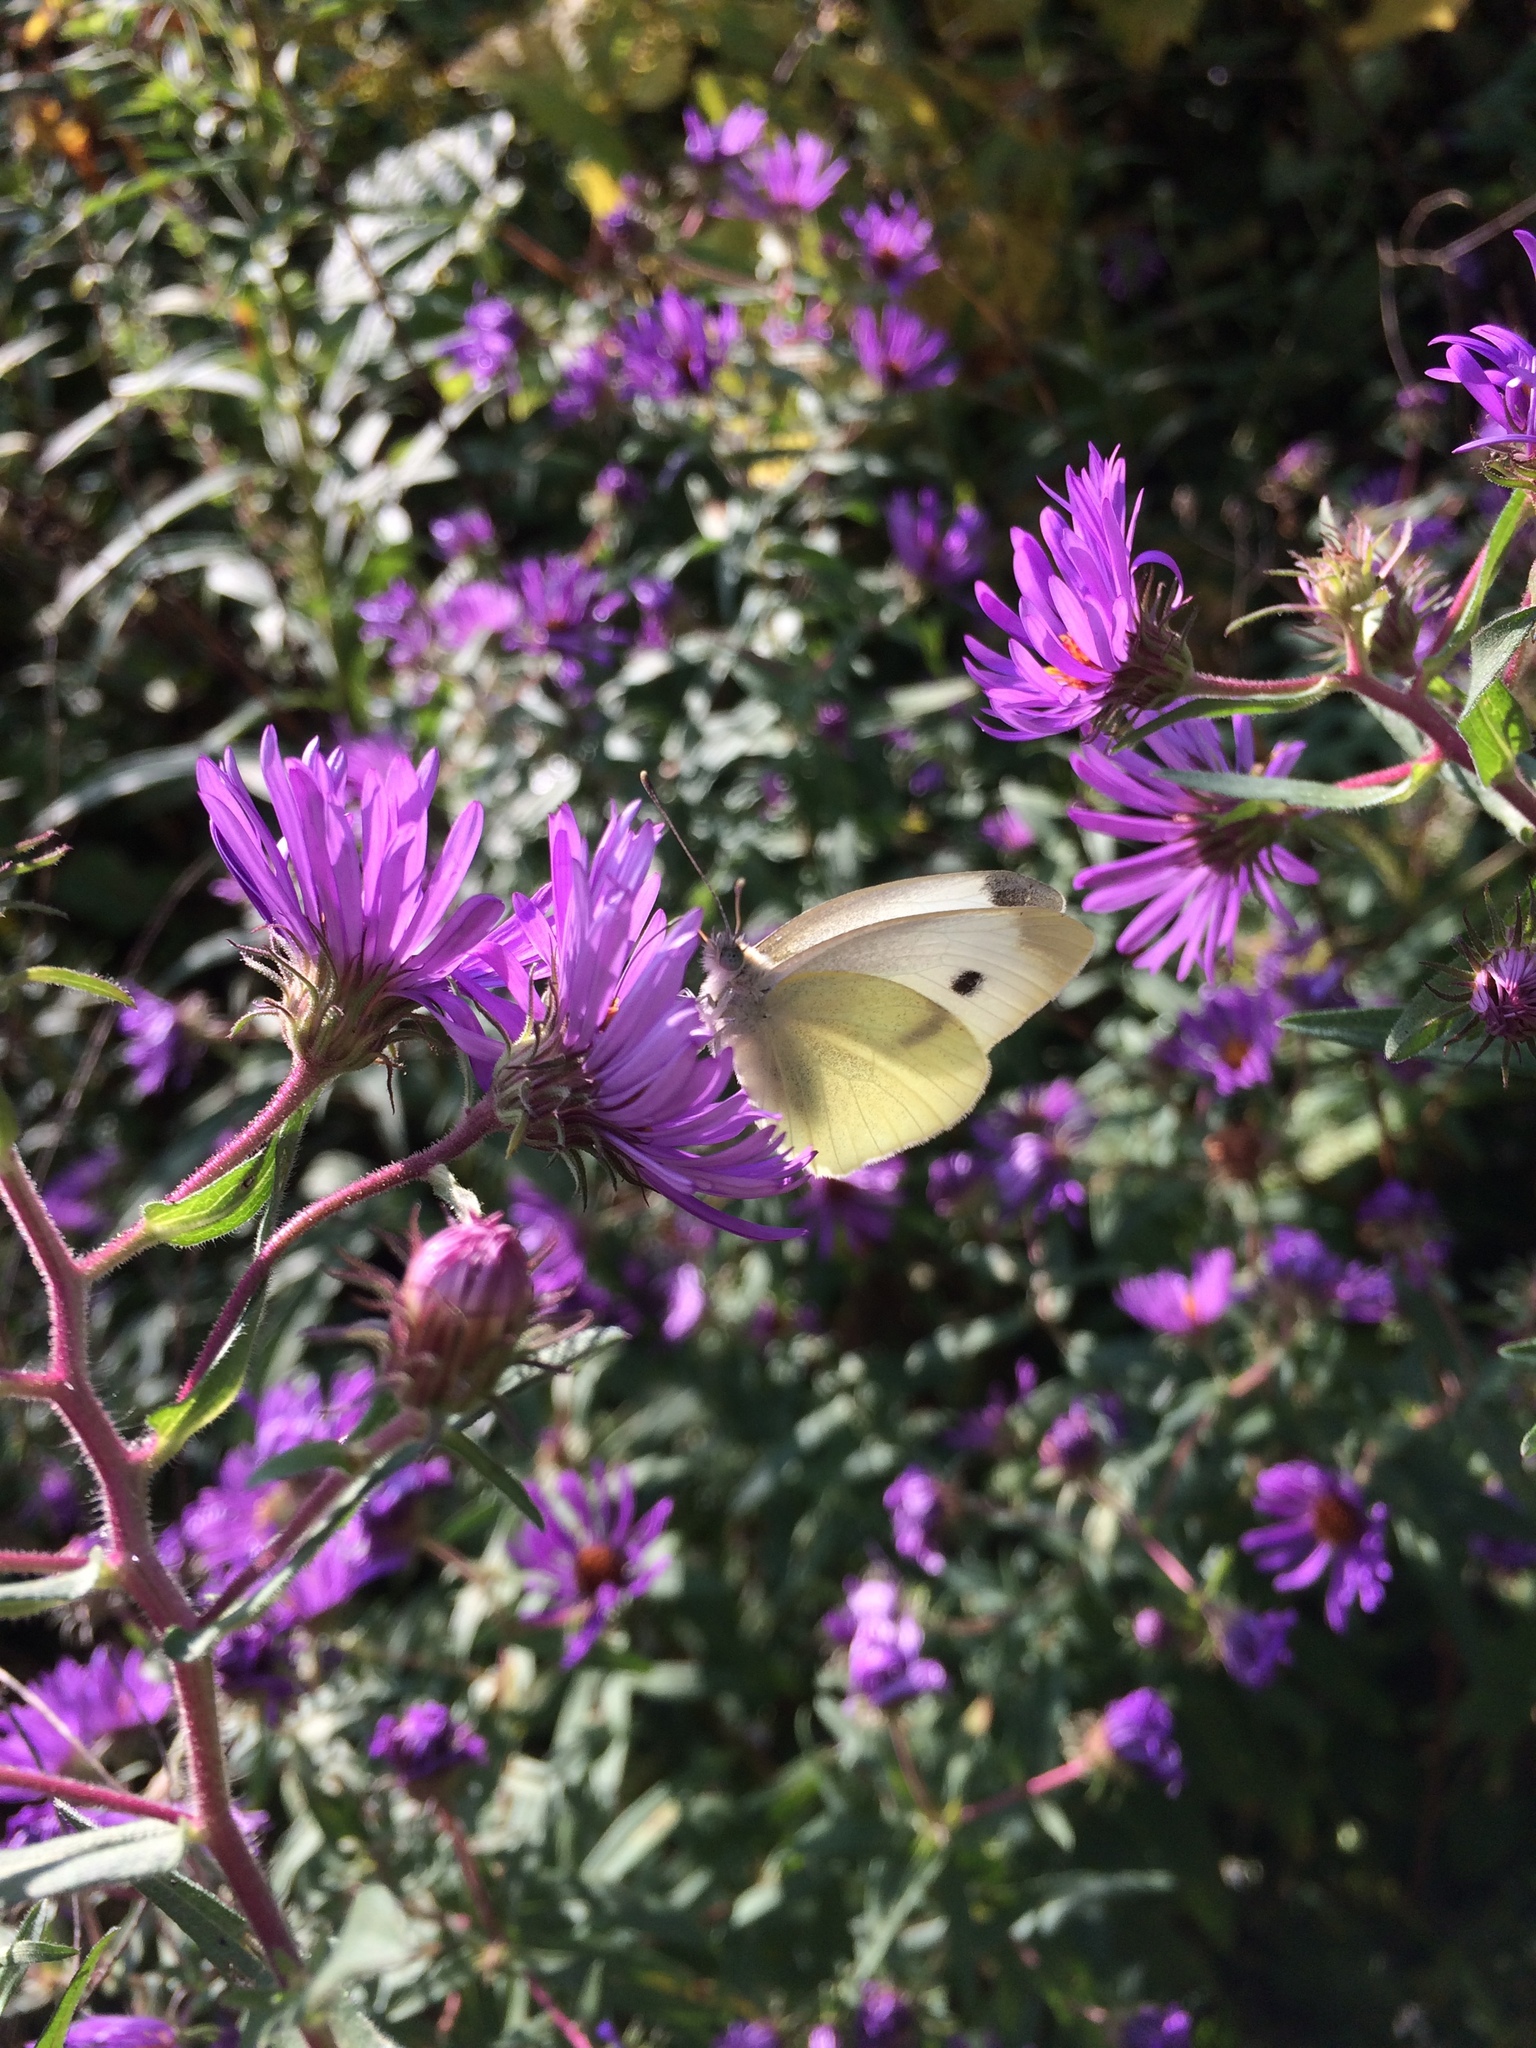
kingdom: Animalia
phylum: Arthropoda
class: Insecta
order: Lepidoptera
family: Pieridae
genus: Pieris
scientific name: Pieris rapae
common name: Small white
